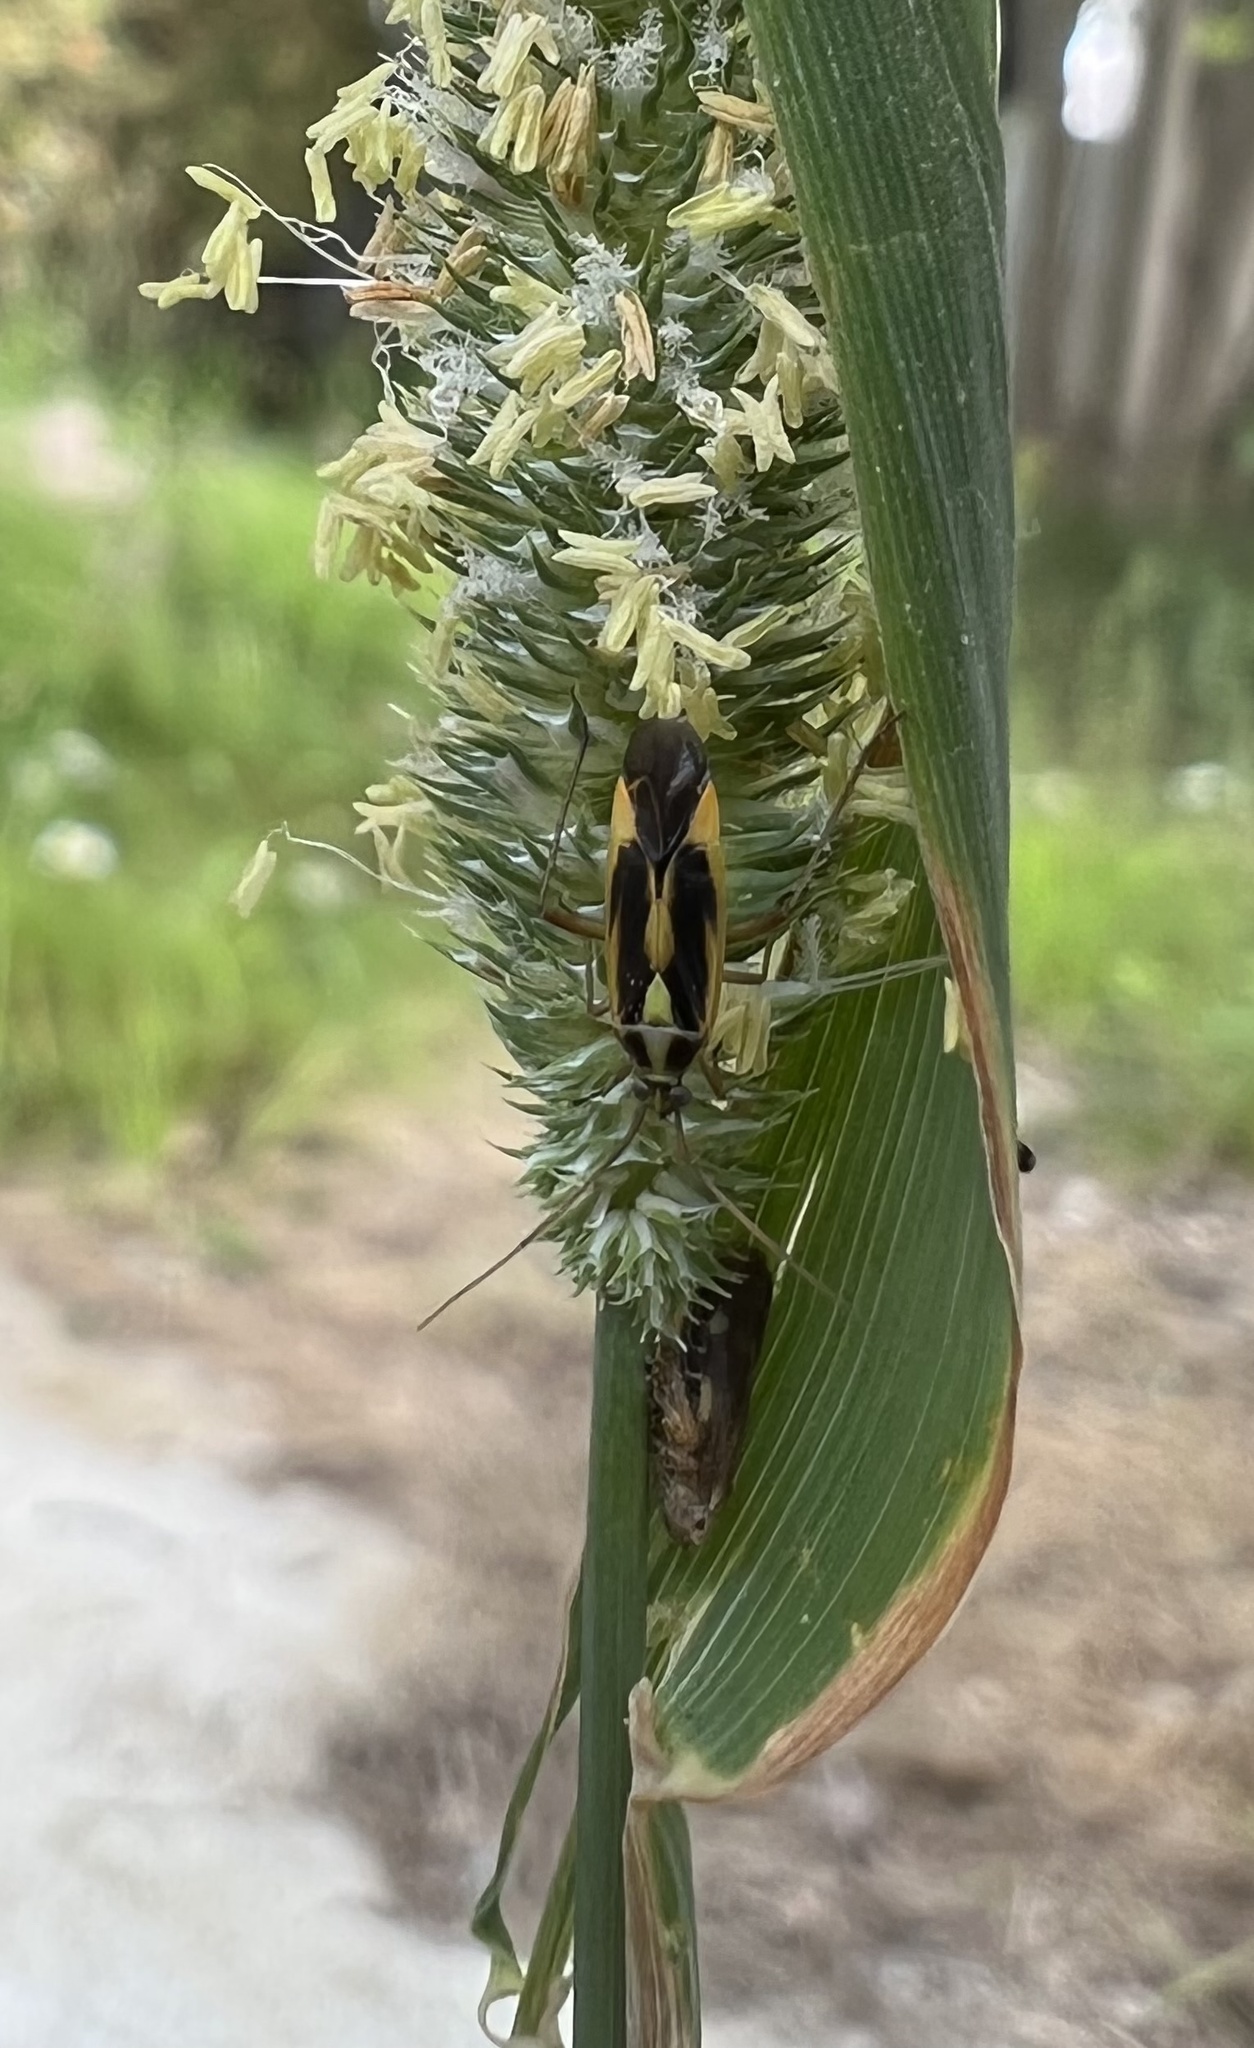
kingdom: Animalia
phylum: Arthropoda
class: Insecta
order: Hemiptera
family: Miridae
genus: Stenotus
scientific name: Stenotus binotatus
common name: Plant bug
